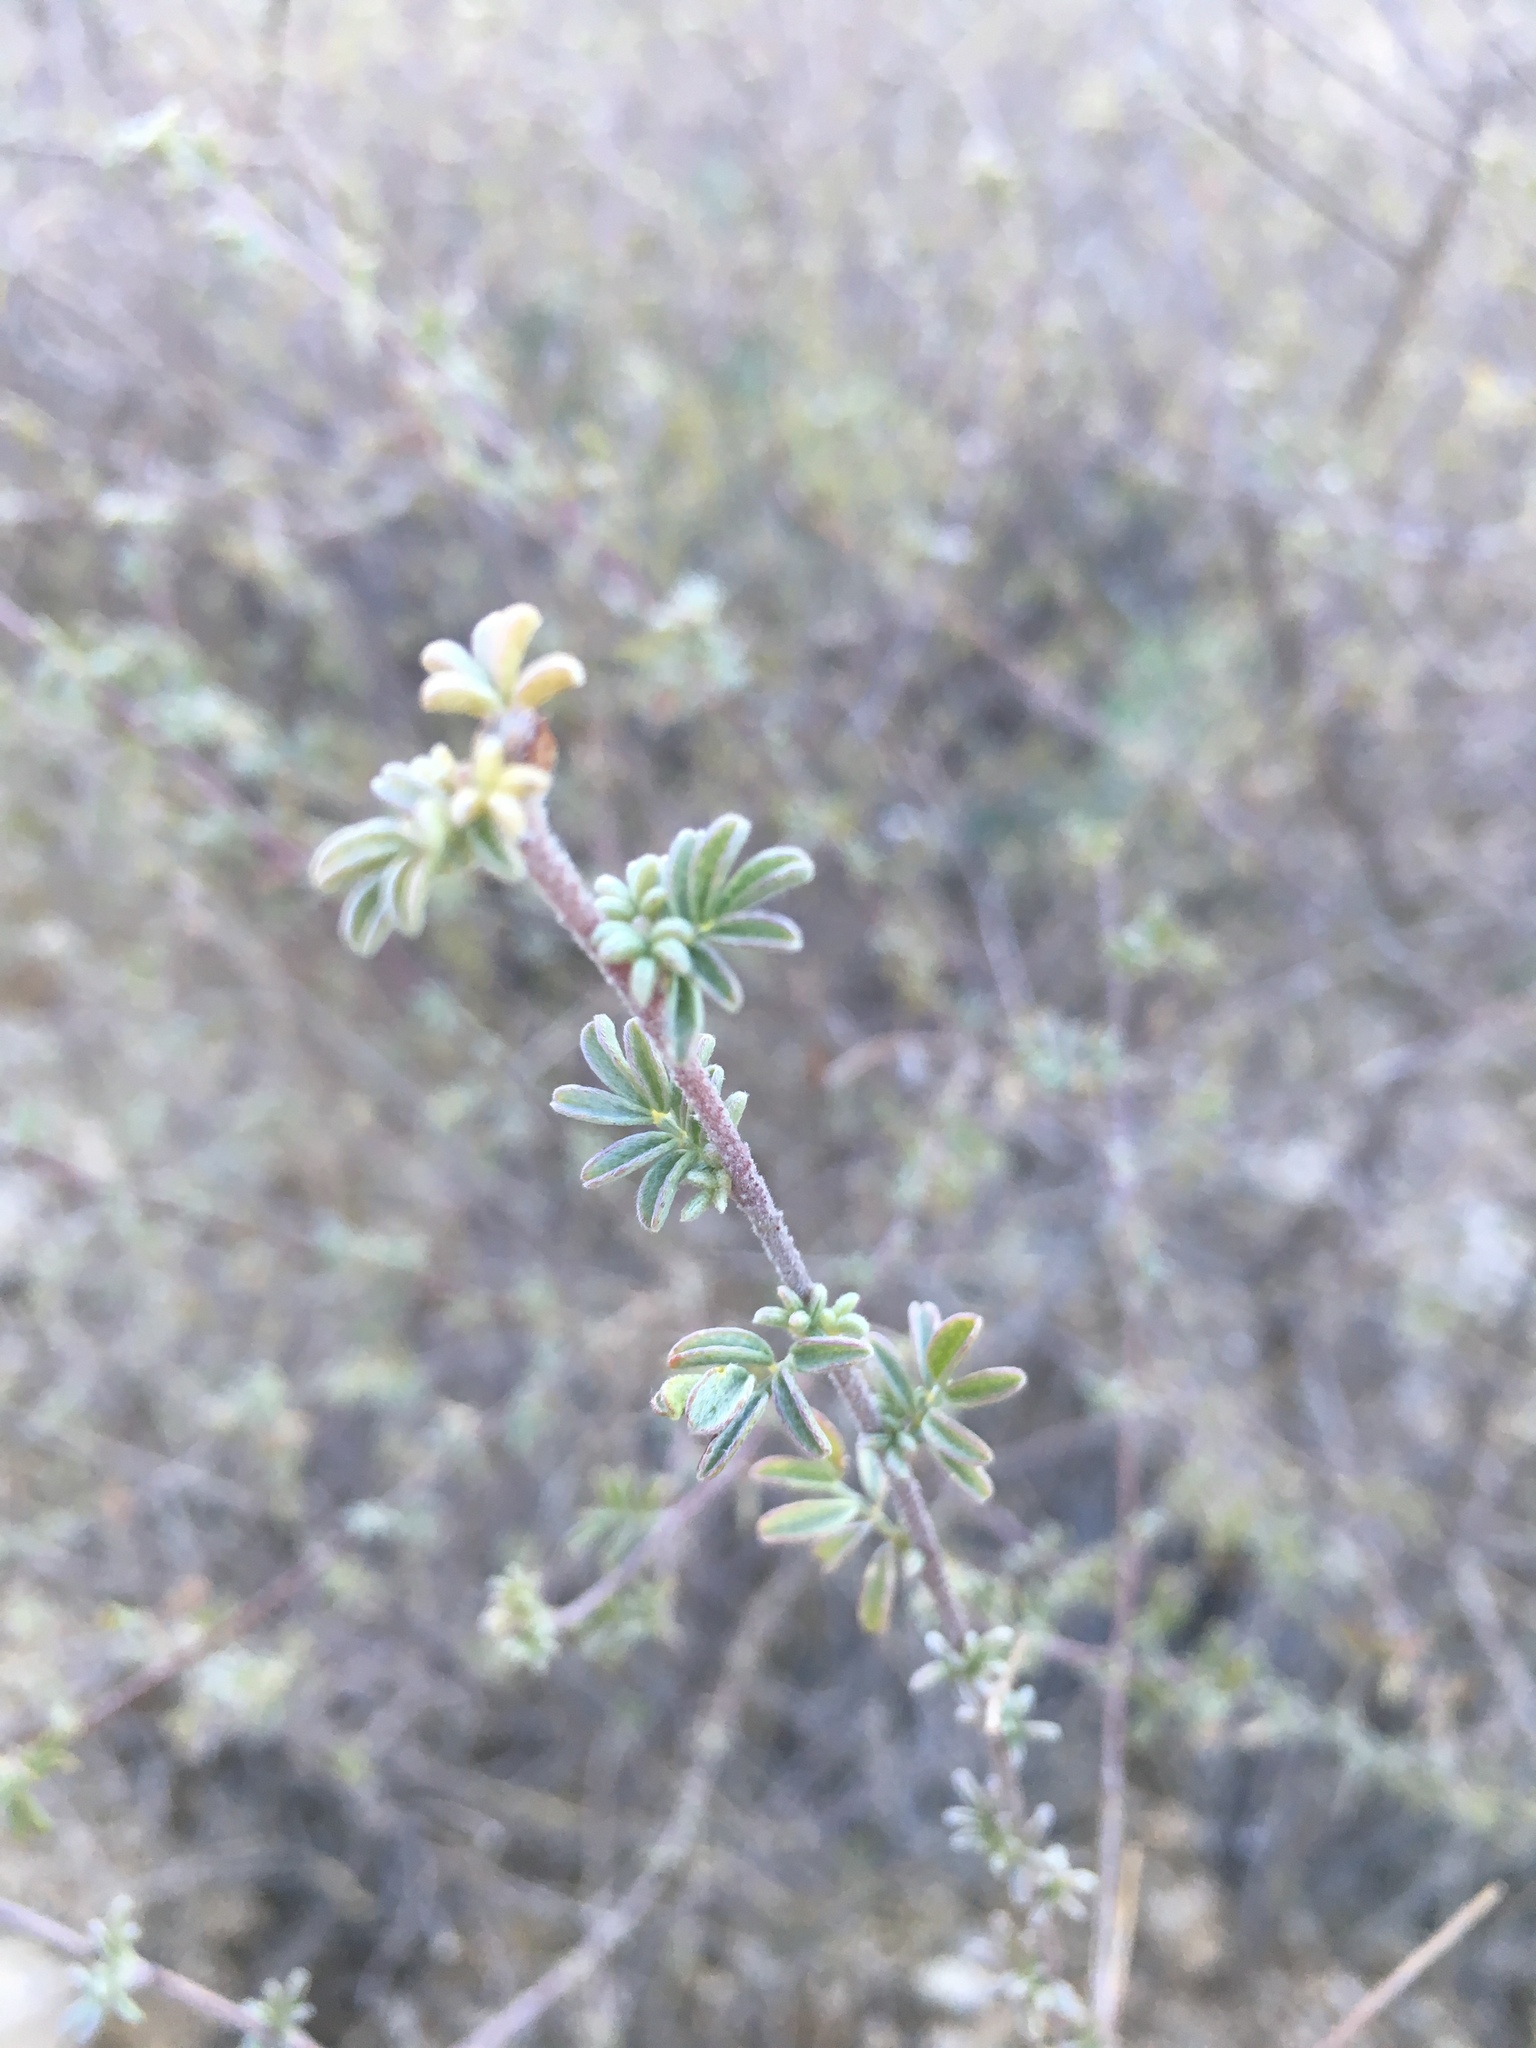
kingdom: Plantae
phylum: Tracheophyta
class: Magnoliopsida
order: Fabales
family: Fabaceae
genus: Dalea
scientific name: Dalea pulchra
